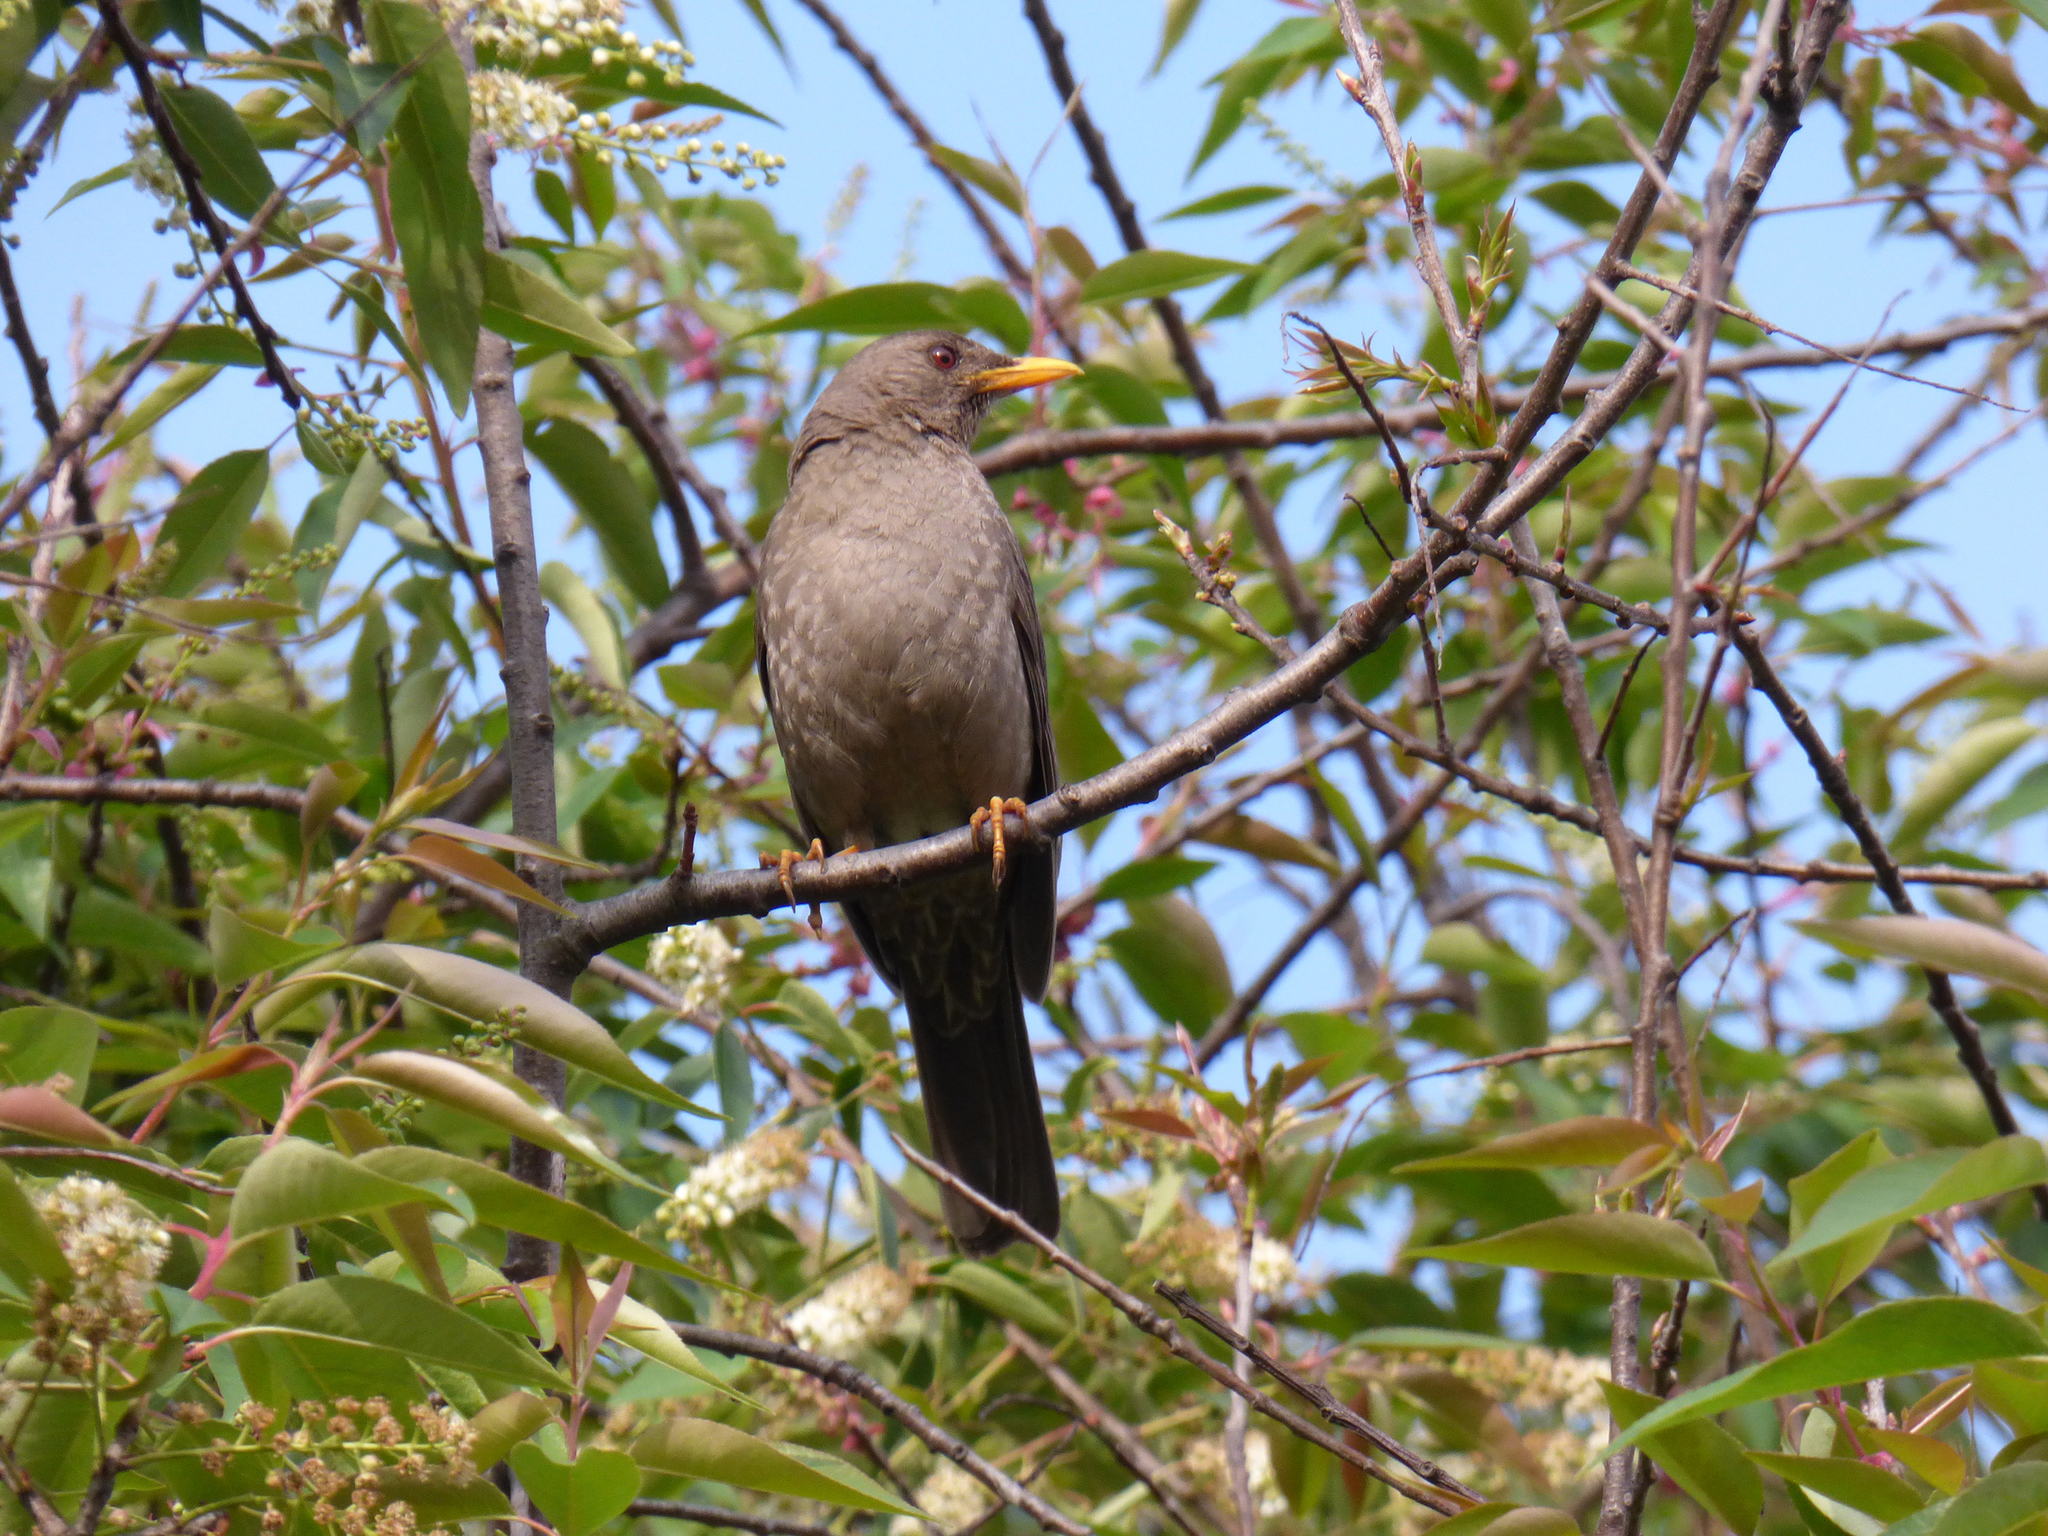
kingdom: Animalia
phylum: Chordata
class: Aves
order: Passeriformes
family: Turdidae
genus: Turdus
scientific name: Turdus chiguanco
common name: Chiguanco thrush
